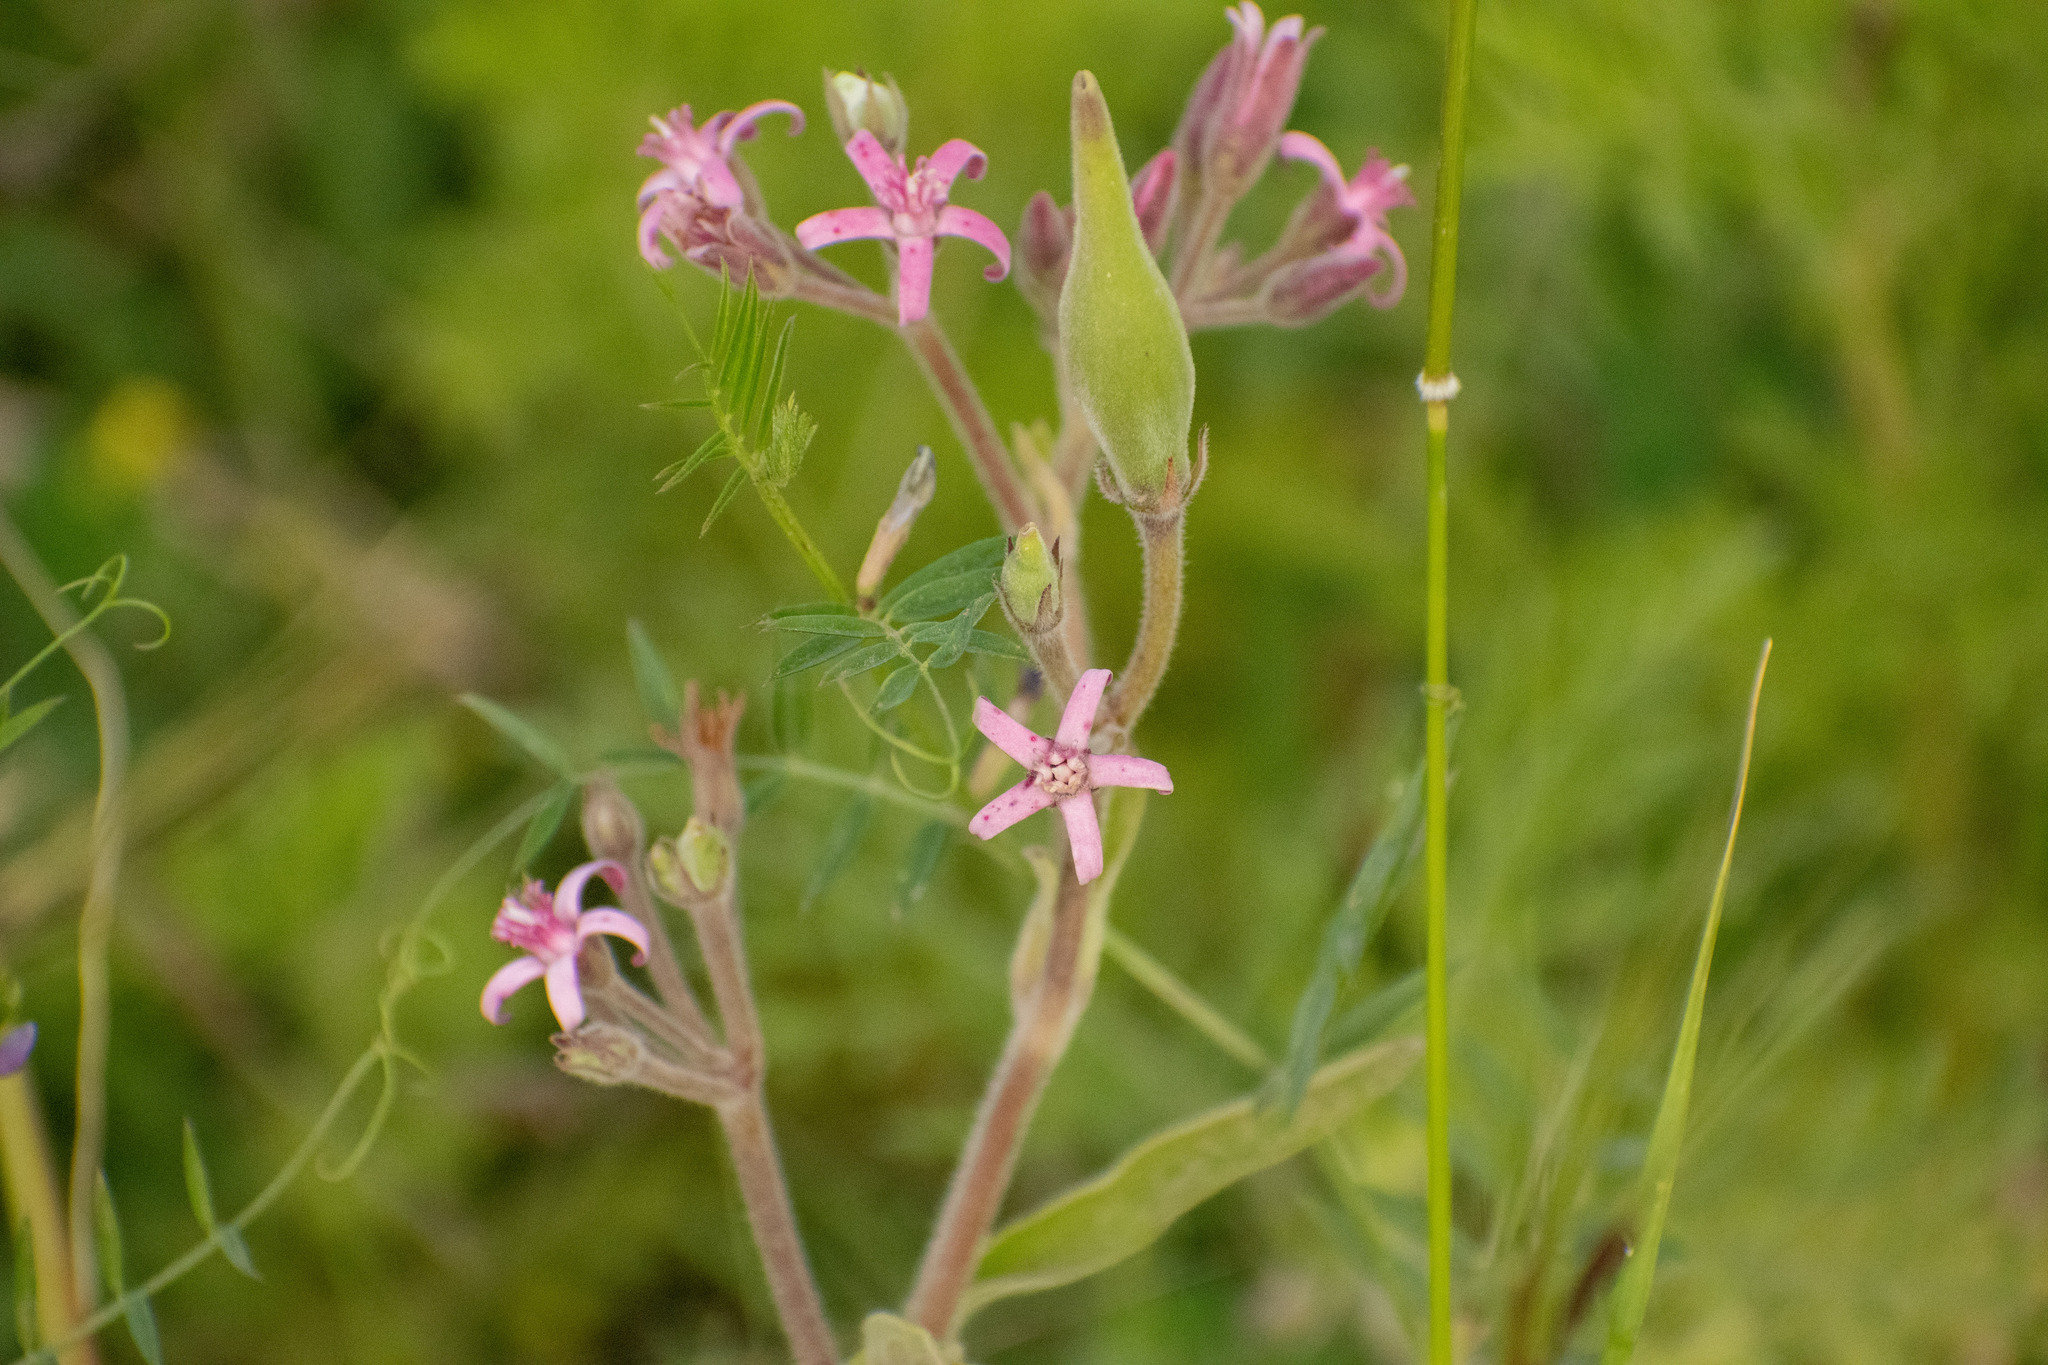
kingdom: Plantae
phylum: Tracheophyta
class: Magnoliopsida
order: Gentianales
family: Apocynaceae
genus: Oxypetalum
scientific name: Oxypetalum solanoides
